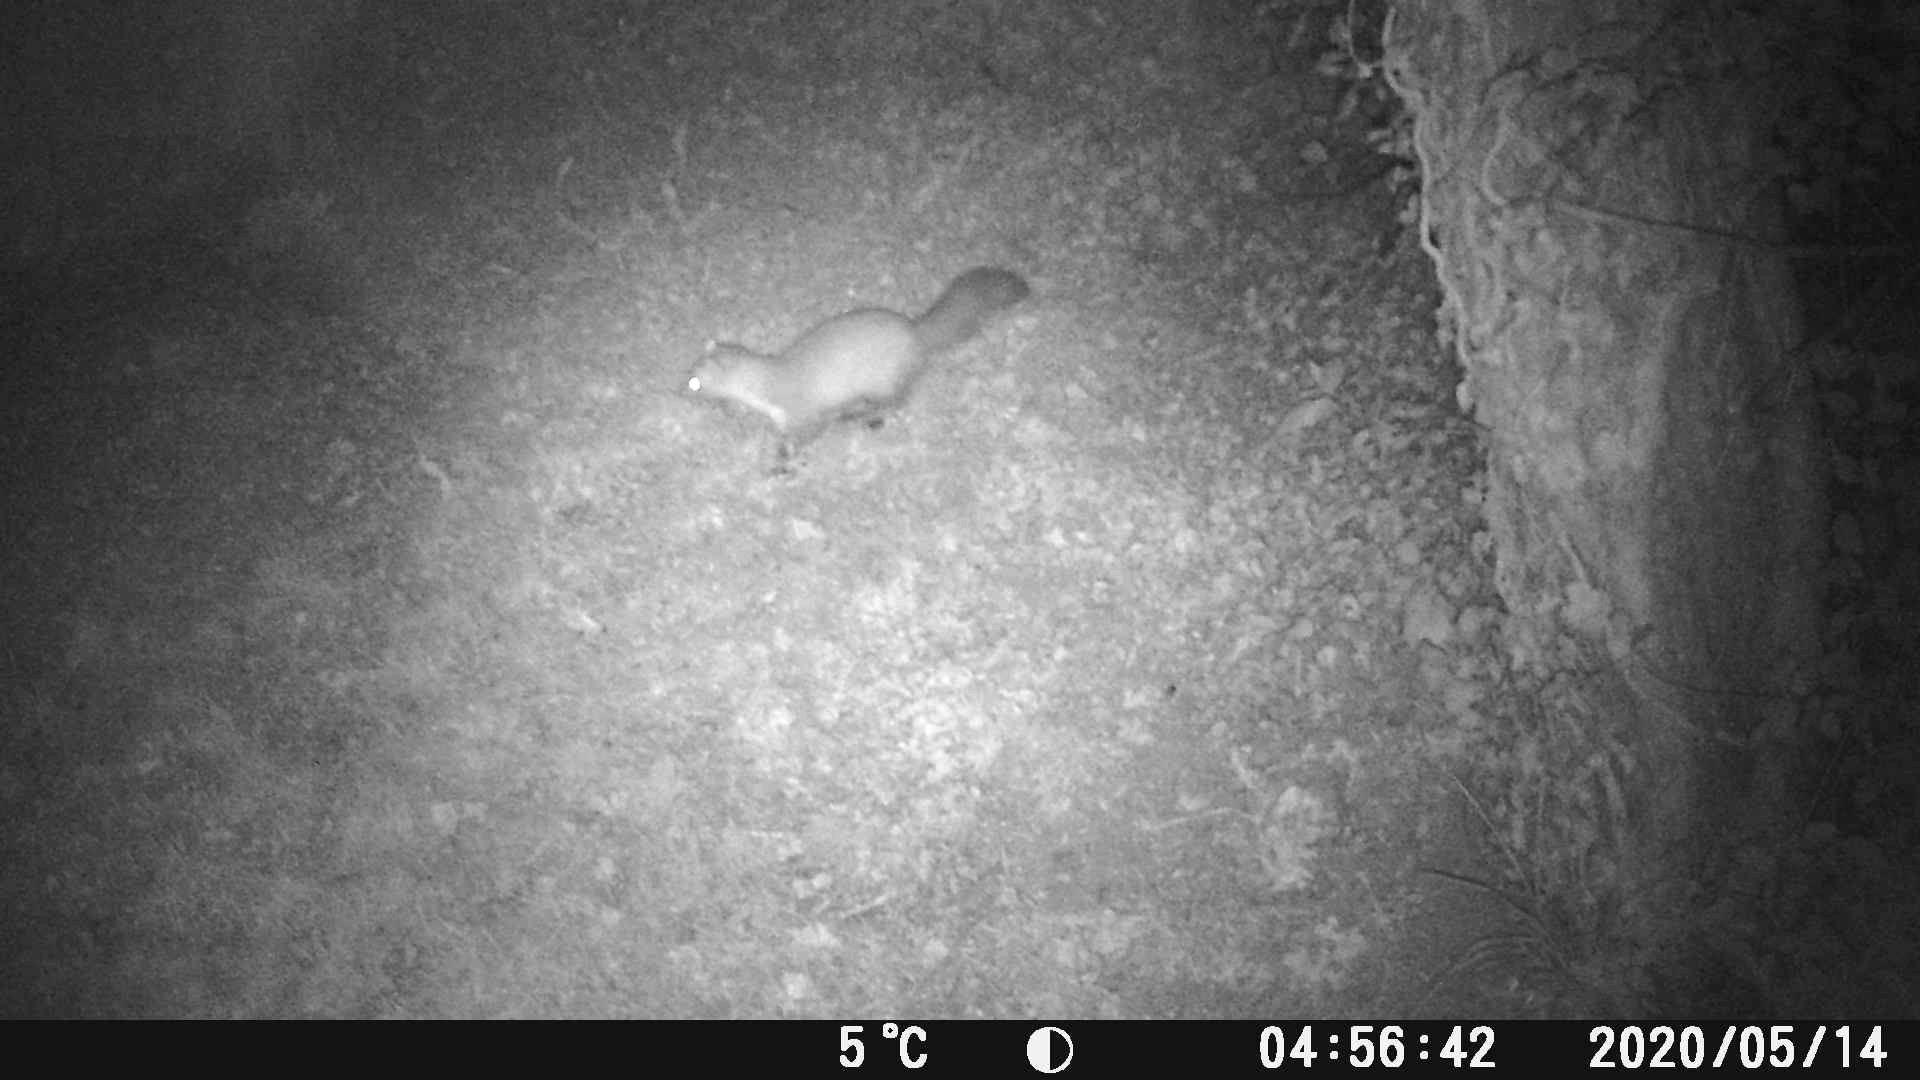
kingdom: Animalia
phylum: Chordata
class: Mammalia
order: Carnivora
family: Mustelidae
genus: Martes
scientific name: Martes foina
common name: Beech marten
